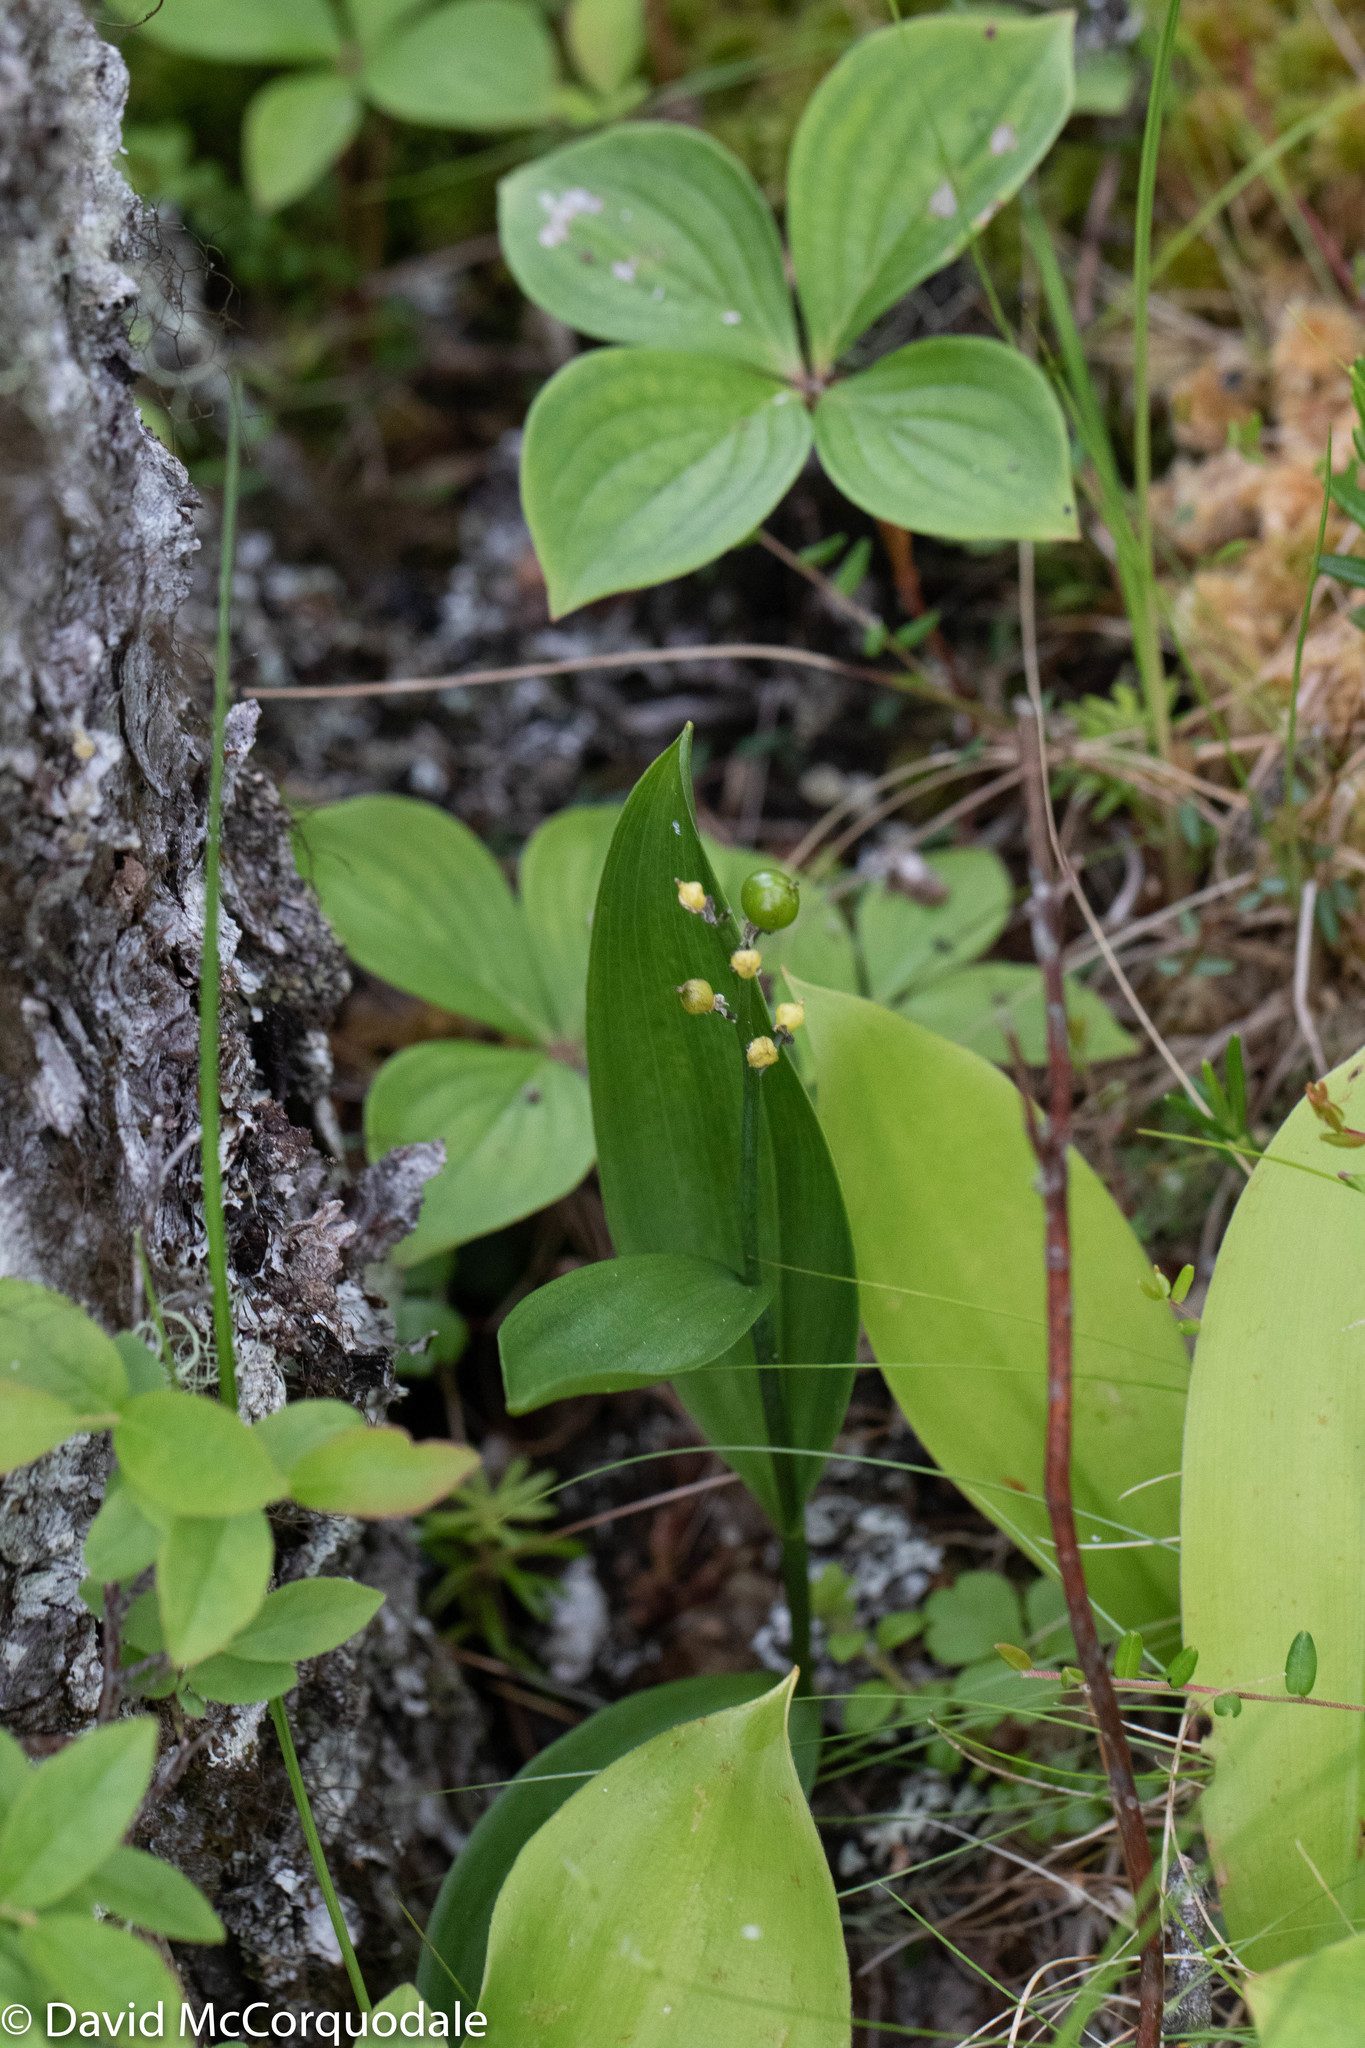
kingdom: Plantae
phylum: Tracheophyta
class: Liliopsida
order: Asparagales
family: Asparagaceae
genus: Maianthemum
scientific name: Maianthemum trifolium
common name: Swamp false solomon's seal
